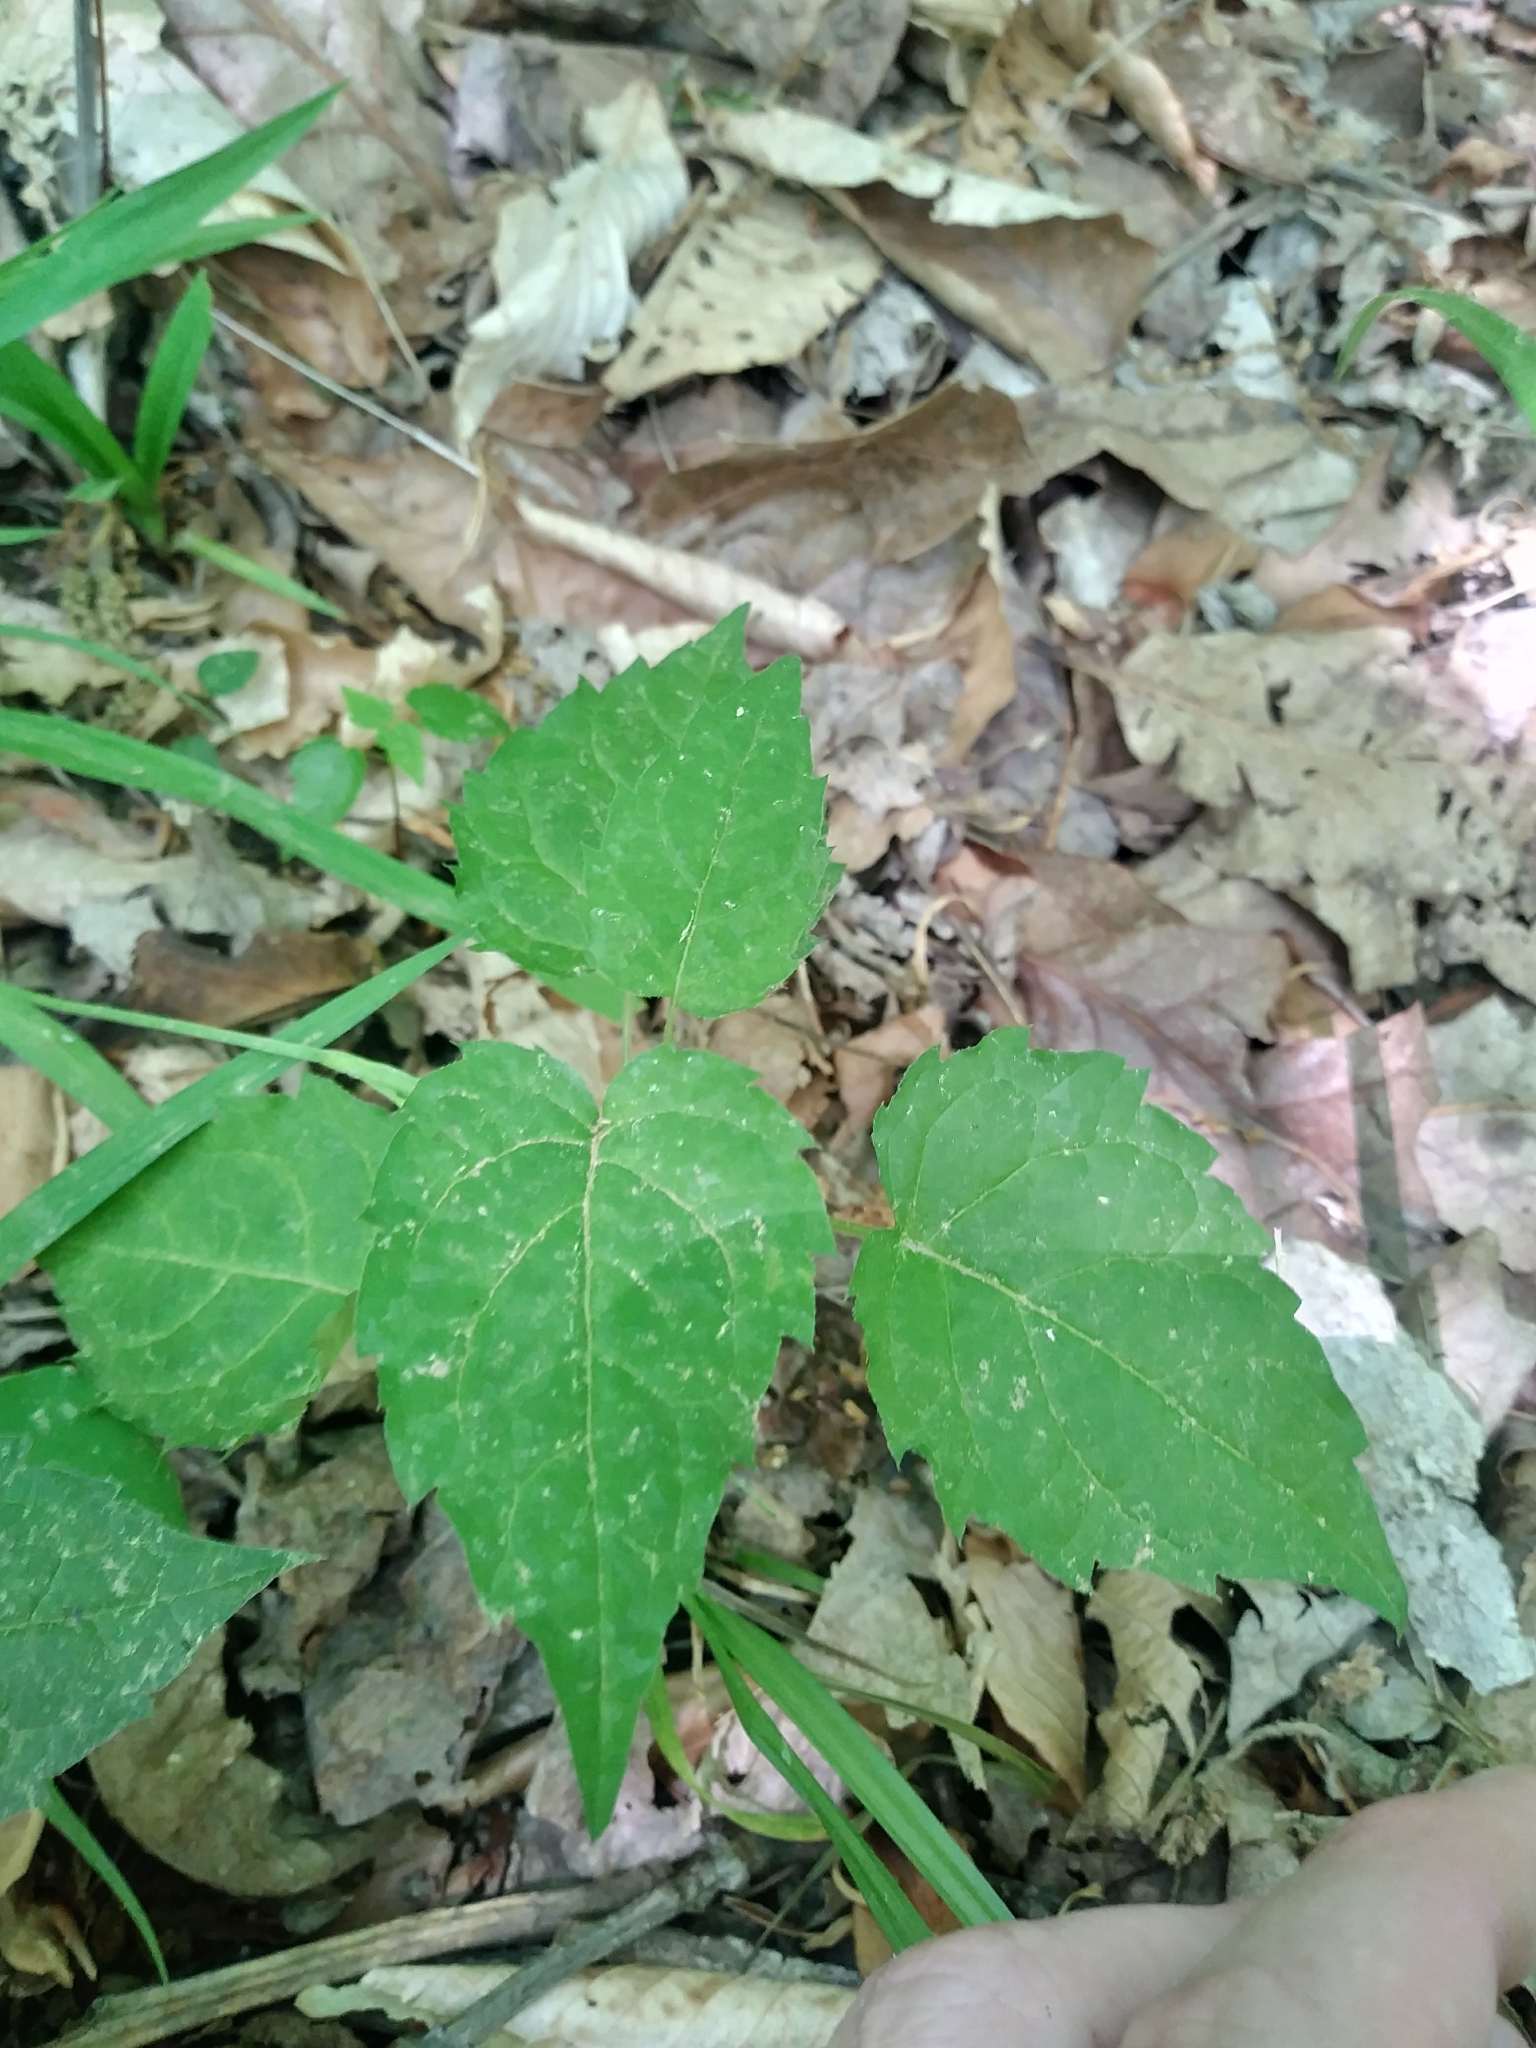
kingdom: Plantae
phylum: Tracheophyta
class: Magnoliopsida
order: Asterales
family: Asteraceae
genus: Eurybia
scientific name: Eurybia divaricata
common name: White wood aster
